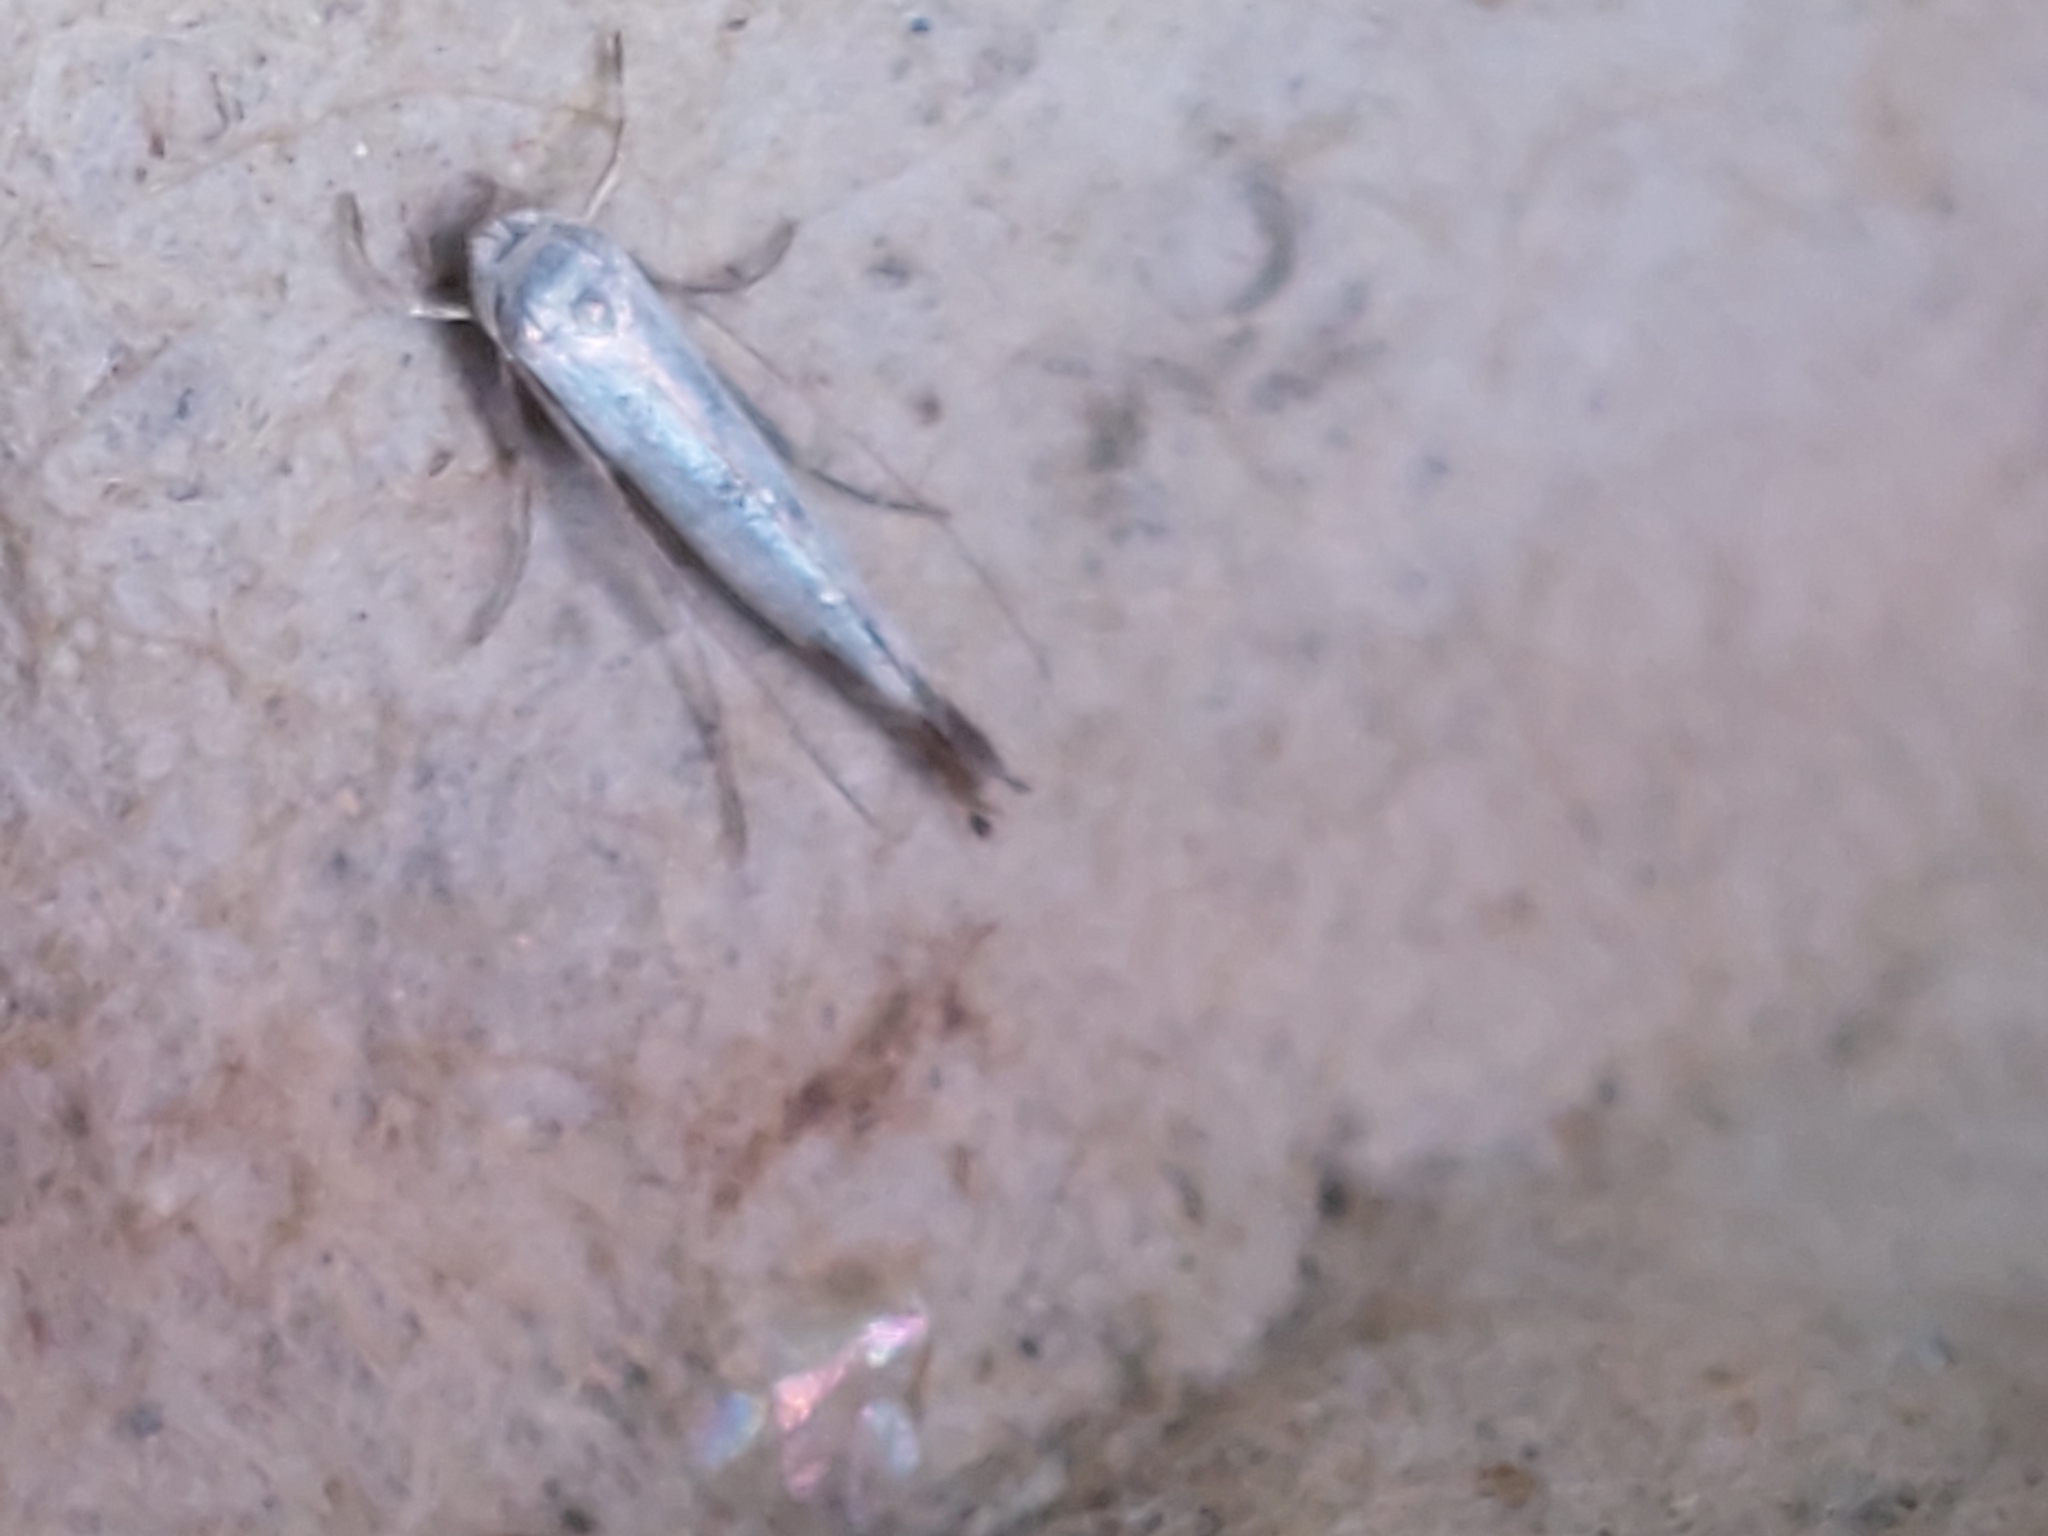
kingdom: Animalia
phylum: Arthropoda
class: Insecta
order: Lepidoptera
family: Lyonetiidae
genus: Lyonetia
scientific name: Lyonetia clerkella
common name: Apple leaf miner
